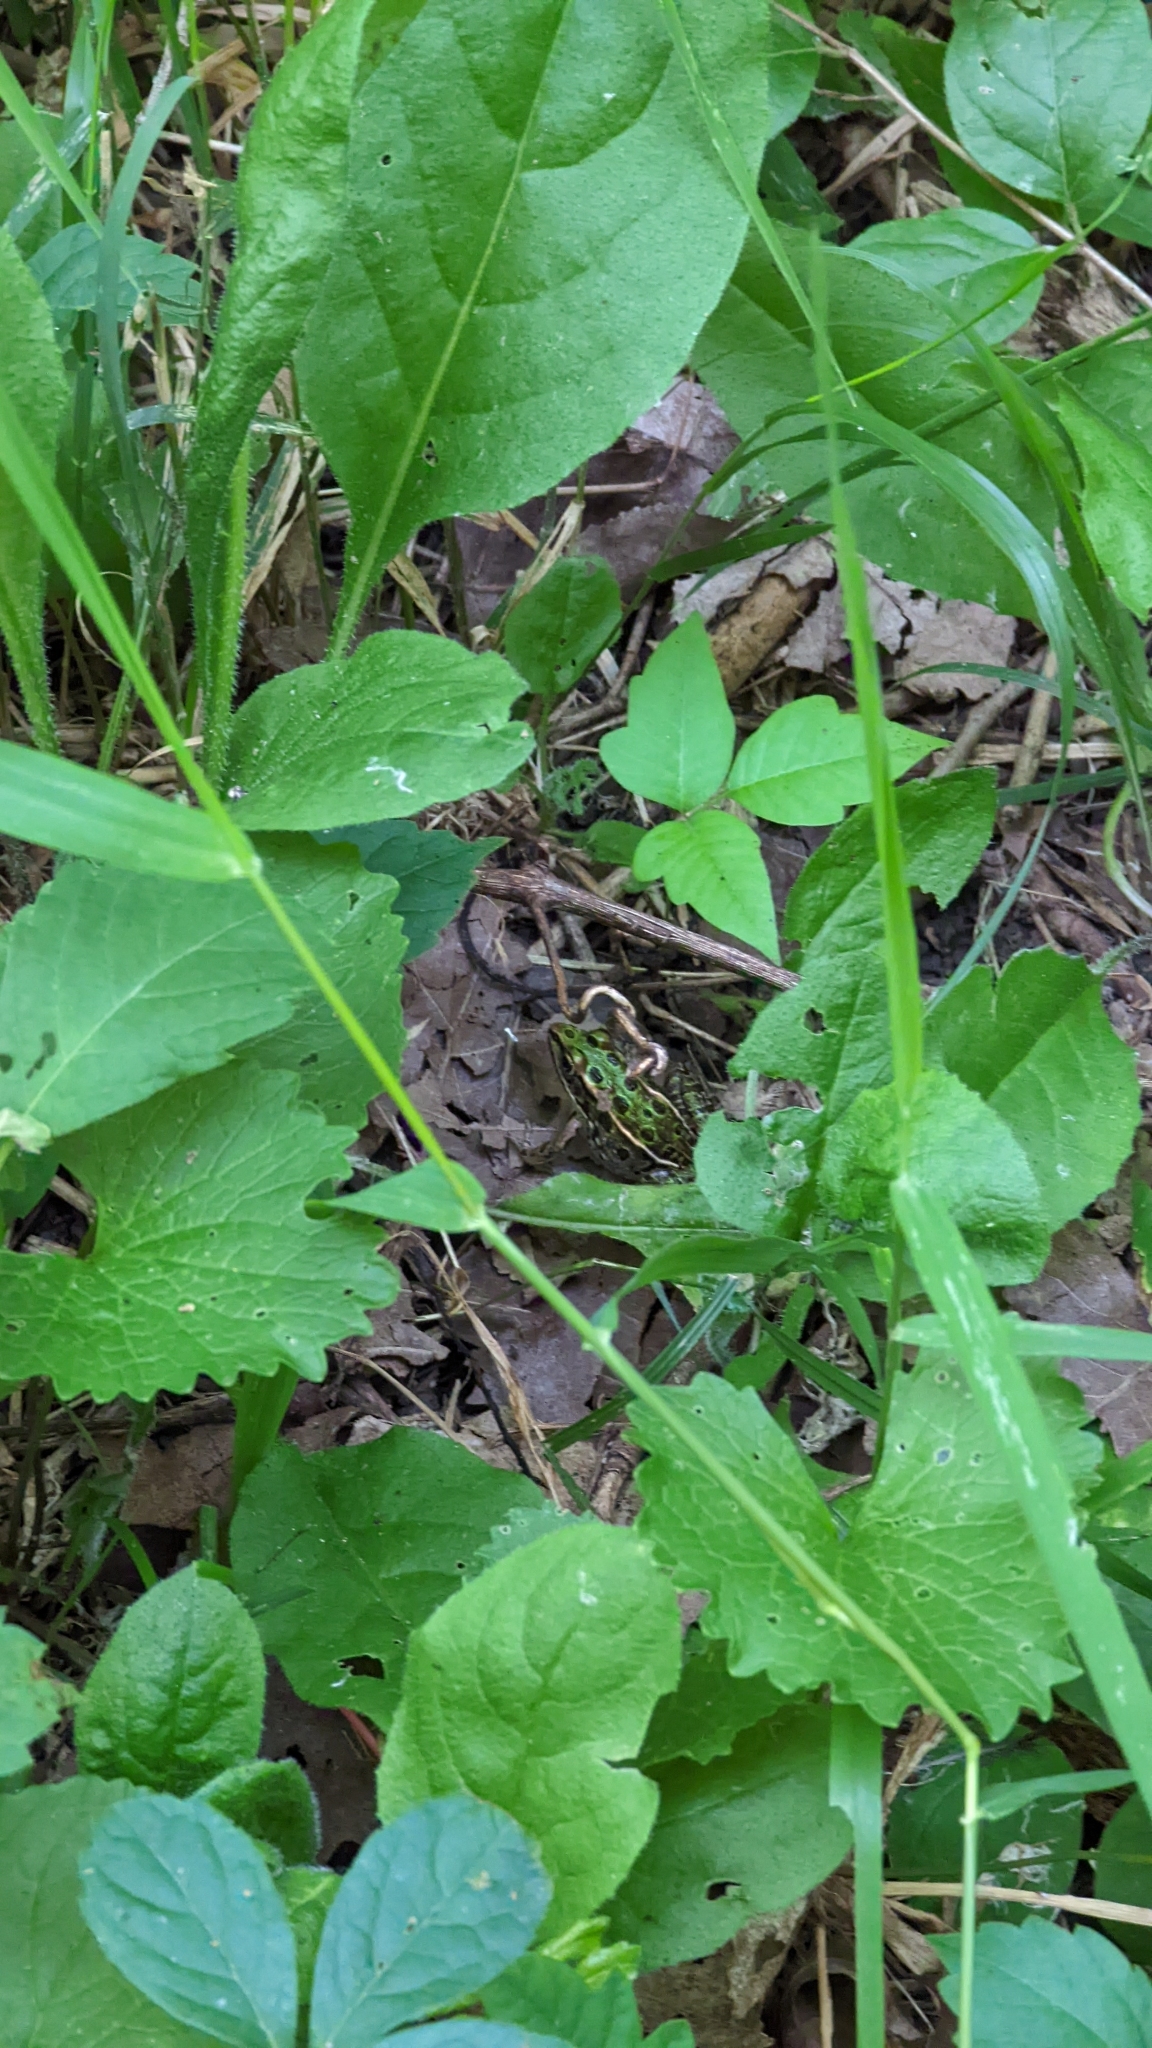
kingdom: Animalia
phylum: Chordata
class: Amphibia
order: Anura
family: Ranidae
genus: Lithobates
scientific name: Lithobates pipiens
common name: Northern leopard frog
